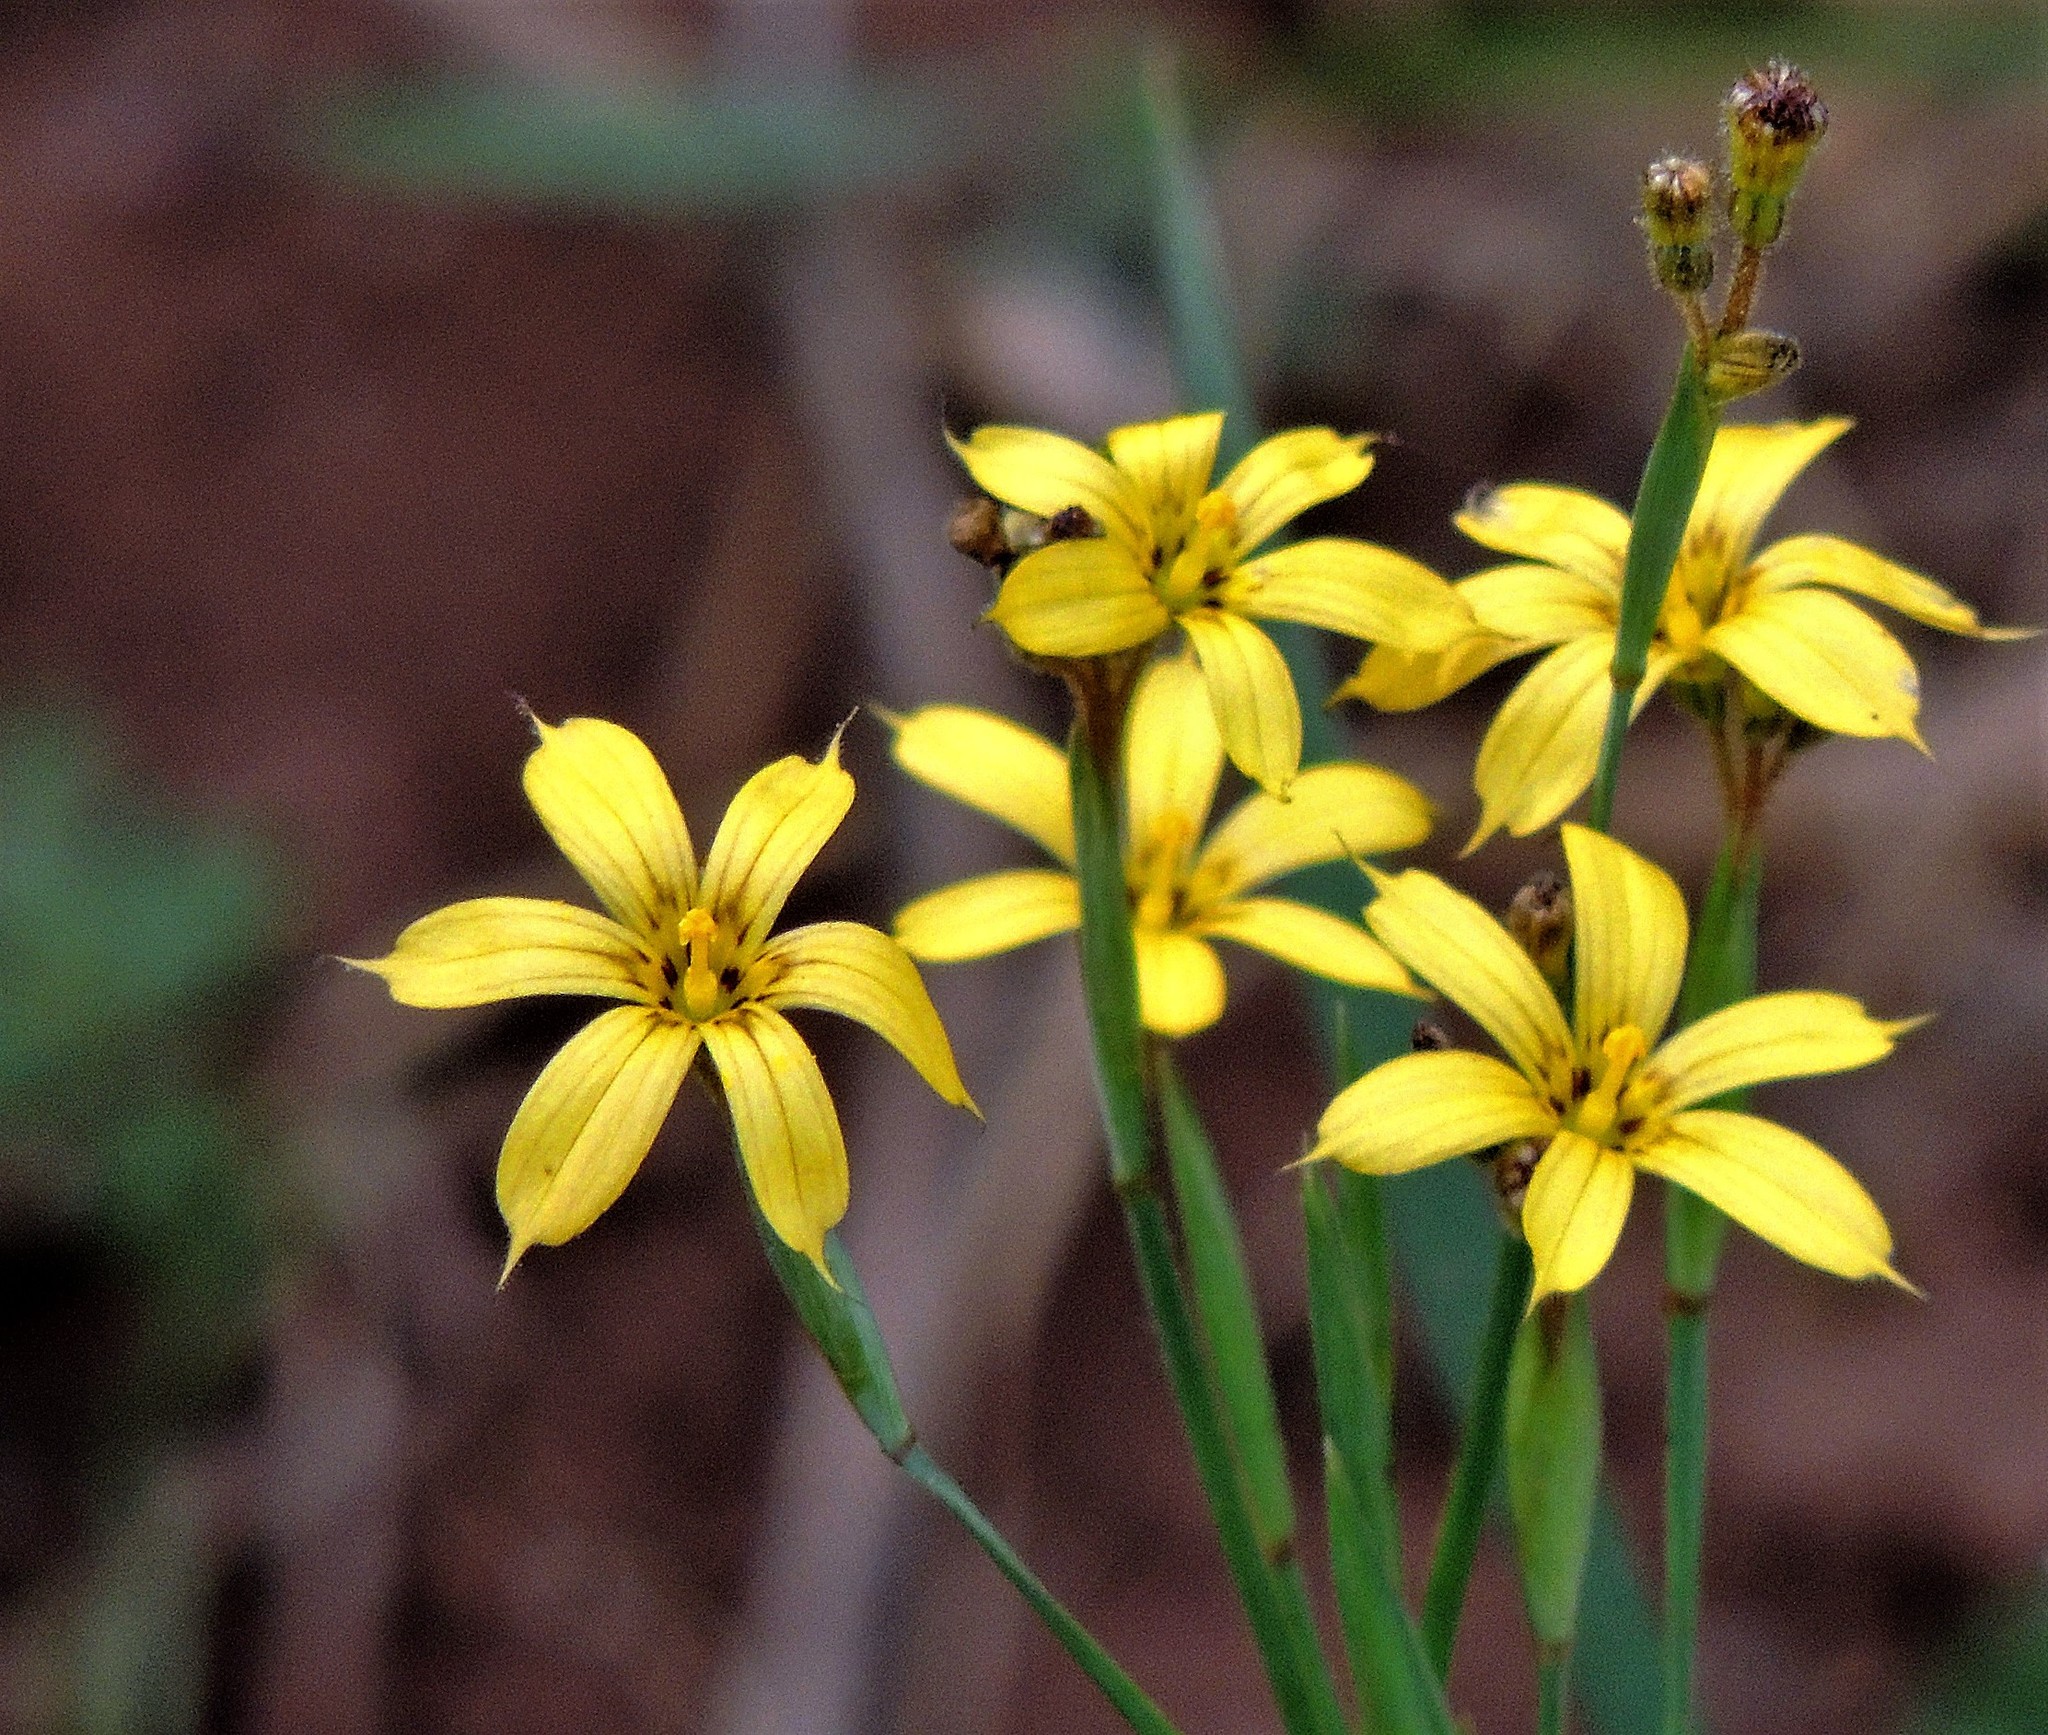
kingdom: Plantae
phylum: Tracheophyta
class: Liliopsida
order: Asparagales
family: Iridaceae
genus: Sisyrinchium
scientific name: Sisyrinchium pachyrhizum
